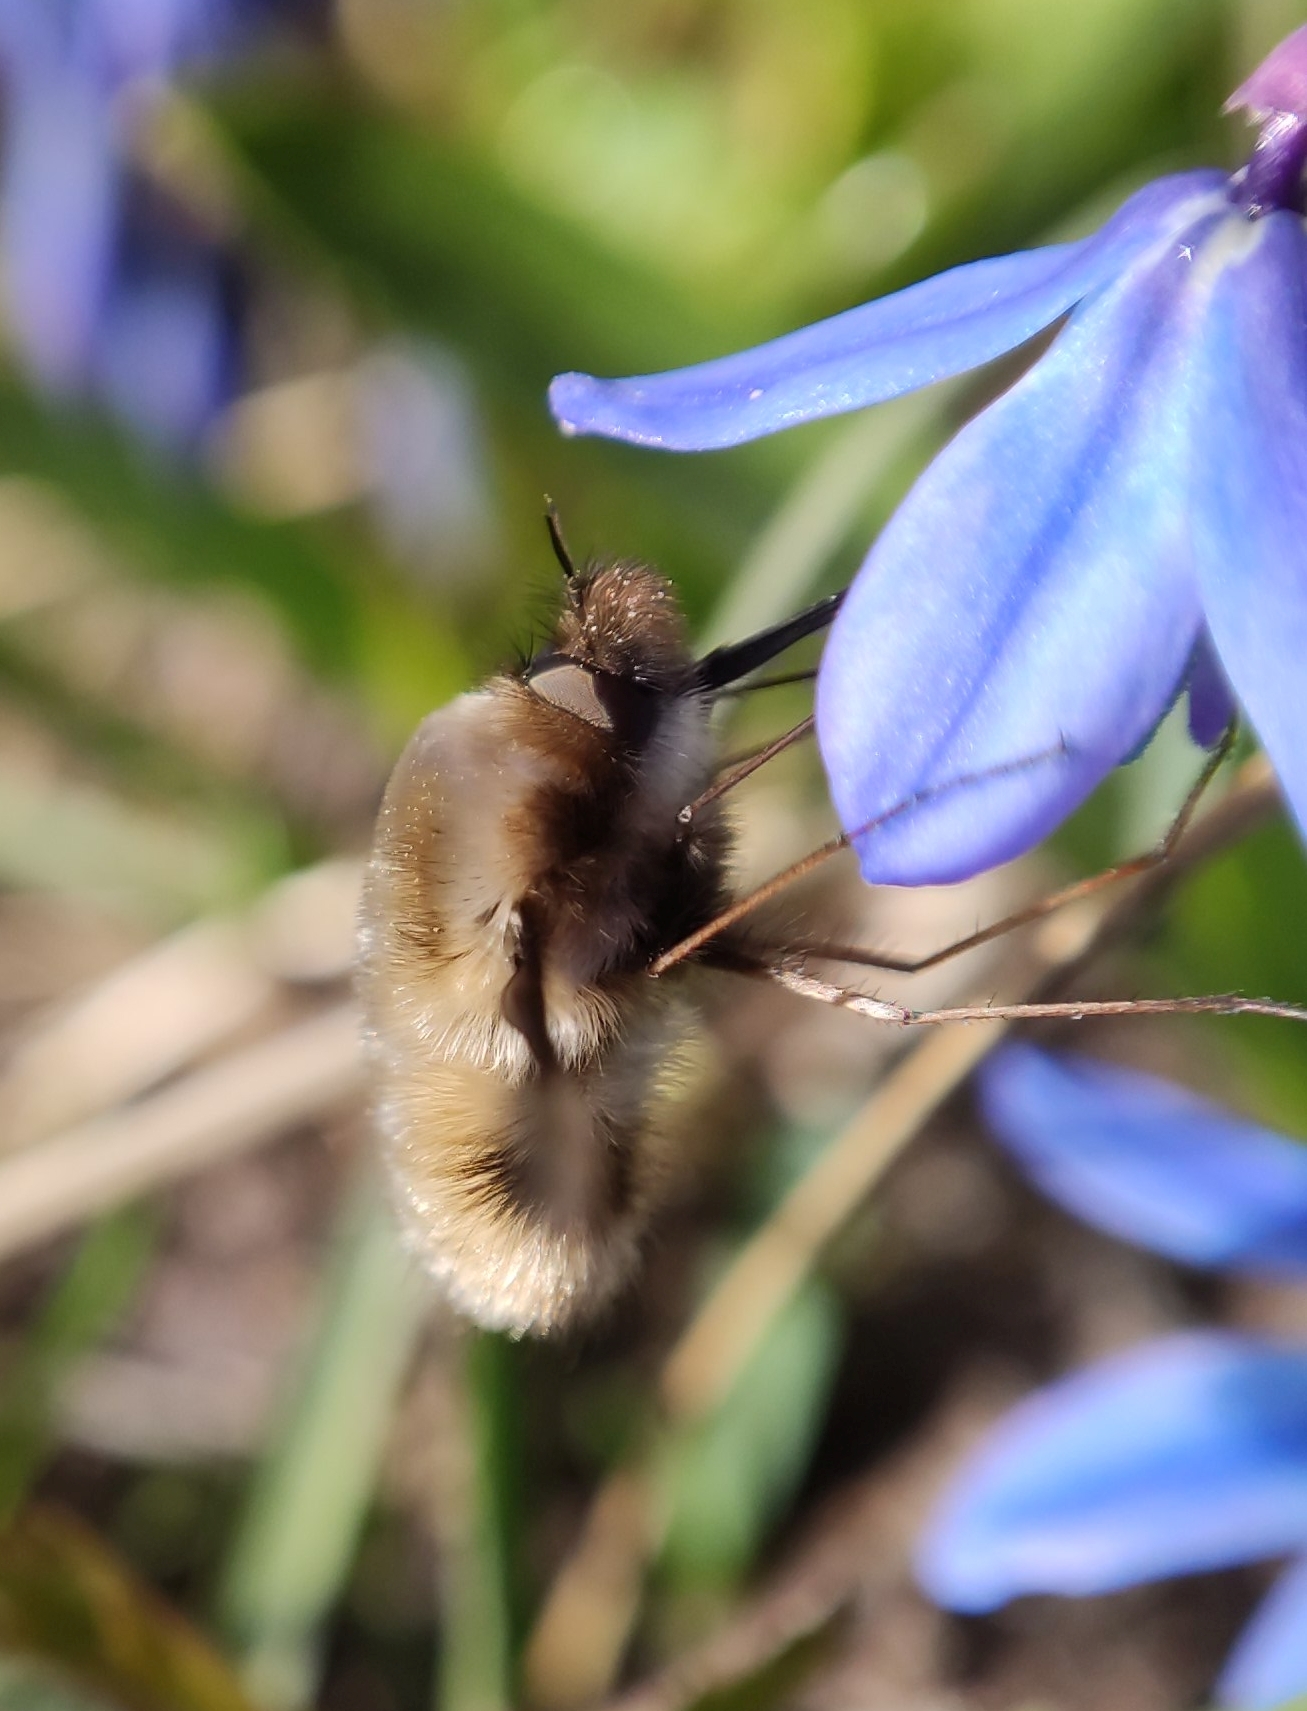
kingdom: Animalia
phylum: Arthropoda
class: Insecta
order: Diptera
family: Bombyliidae
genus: Bombylius
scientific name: Bombylius major
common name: Bee fly
